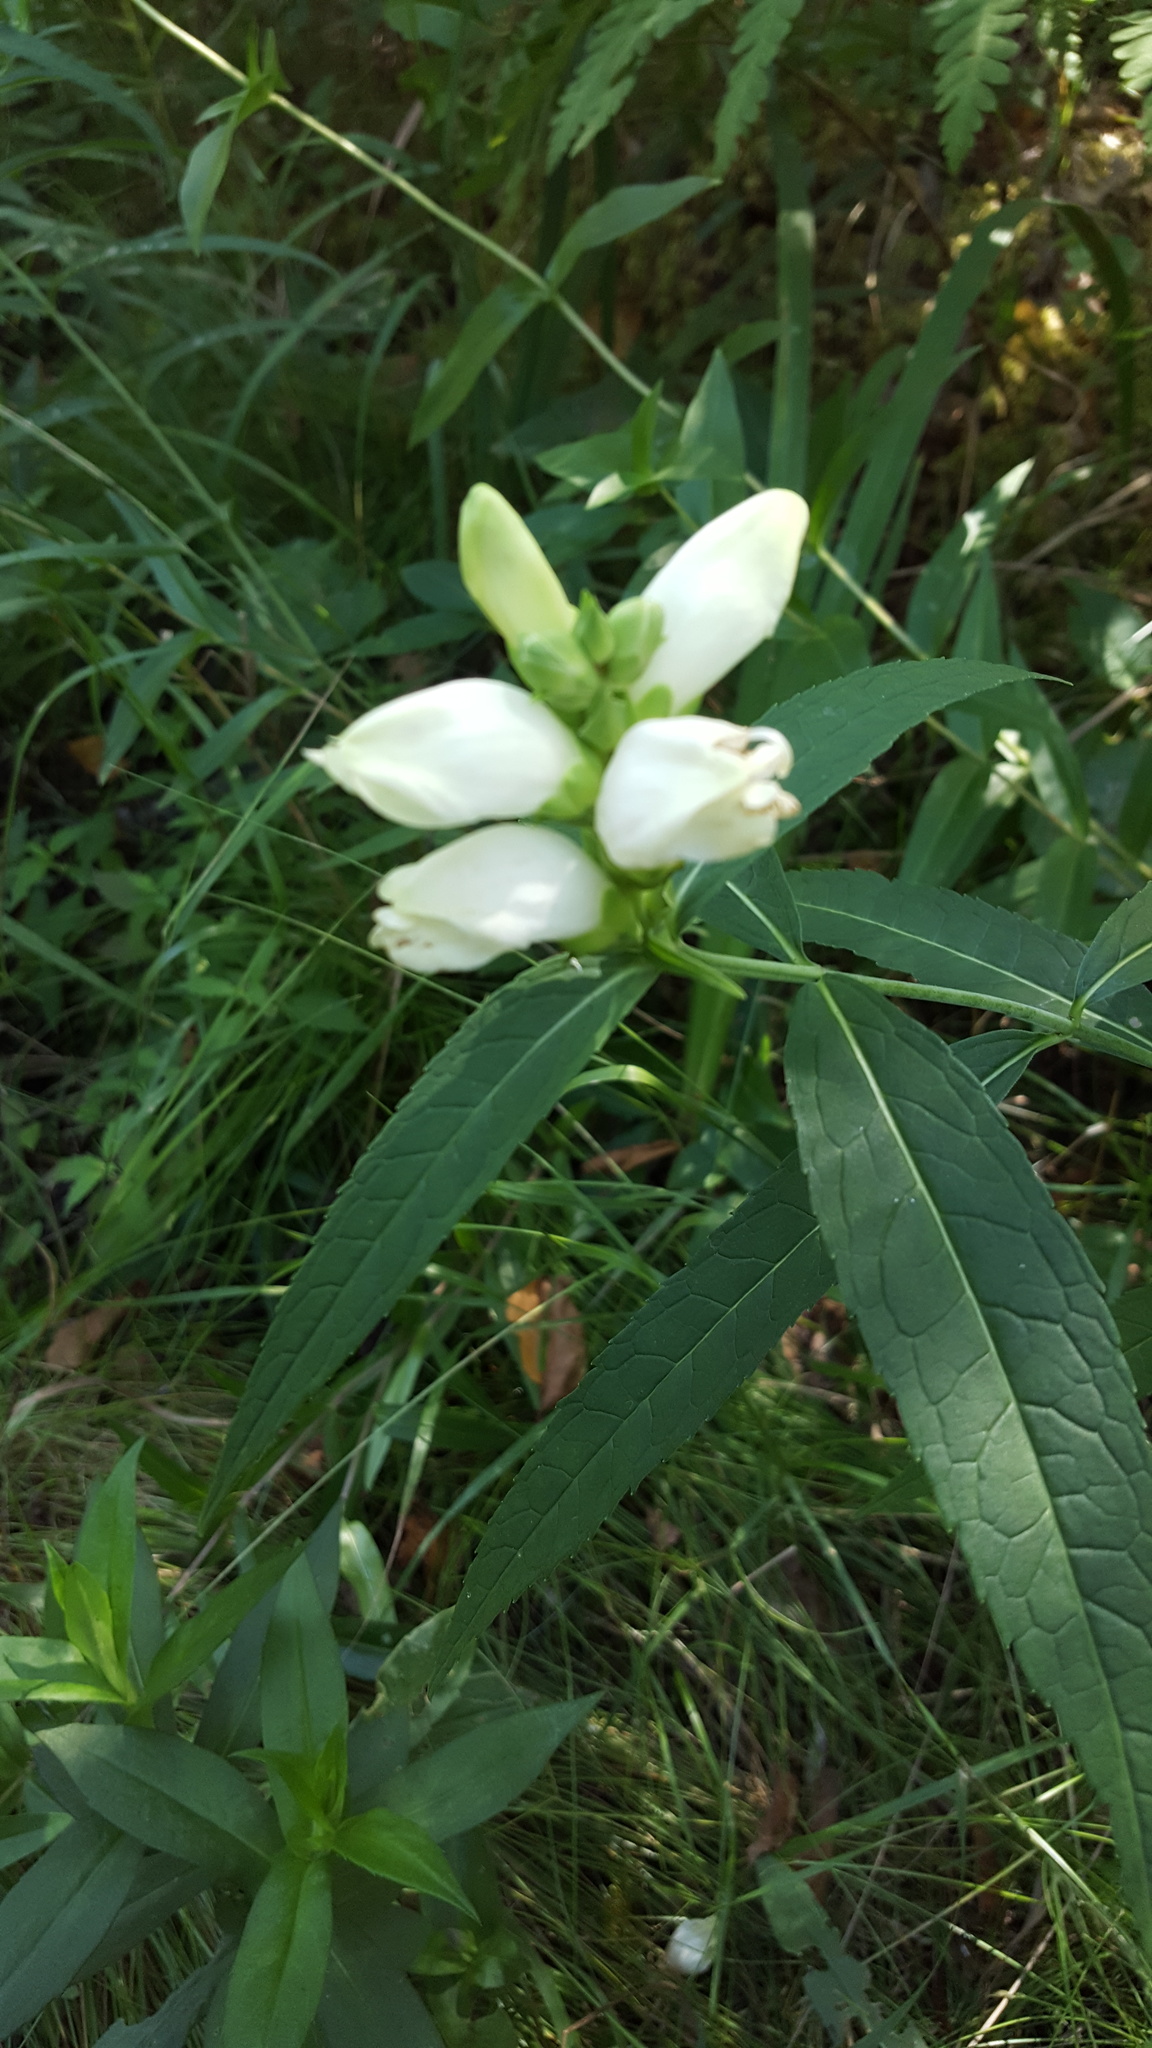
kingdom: Plantae
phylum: Tracheophyta
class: Magnoliopsida
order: Lamiales
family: Plantaginaceae
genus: Chelone
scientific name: Chelone glabra
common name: Snakehead
